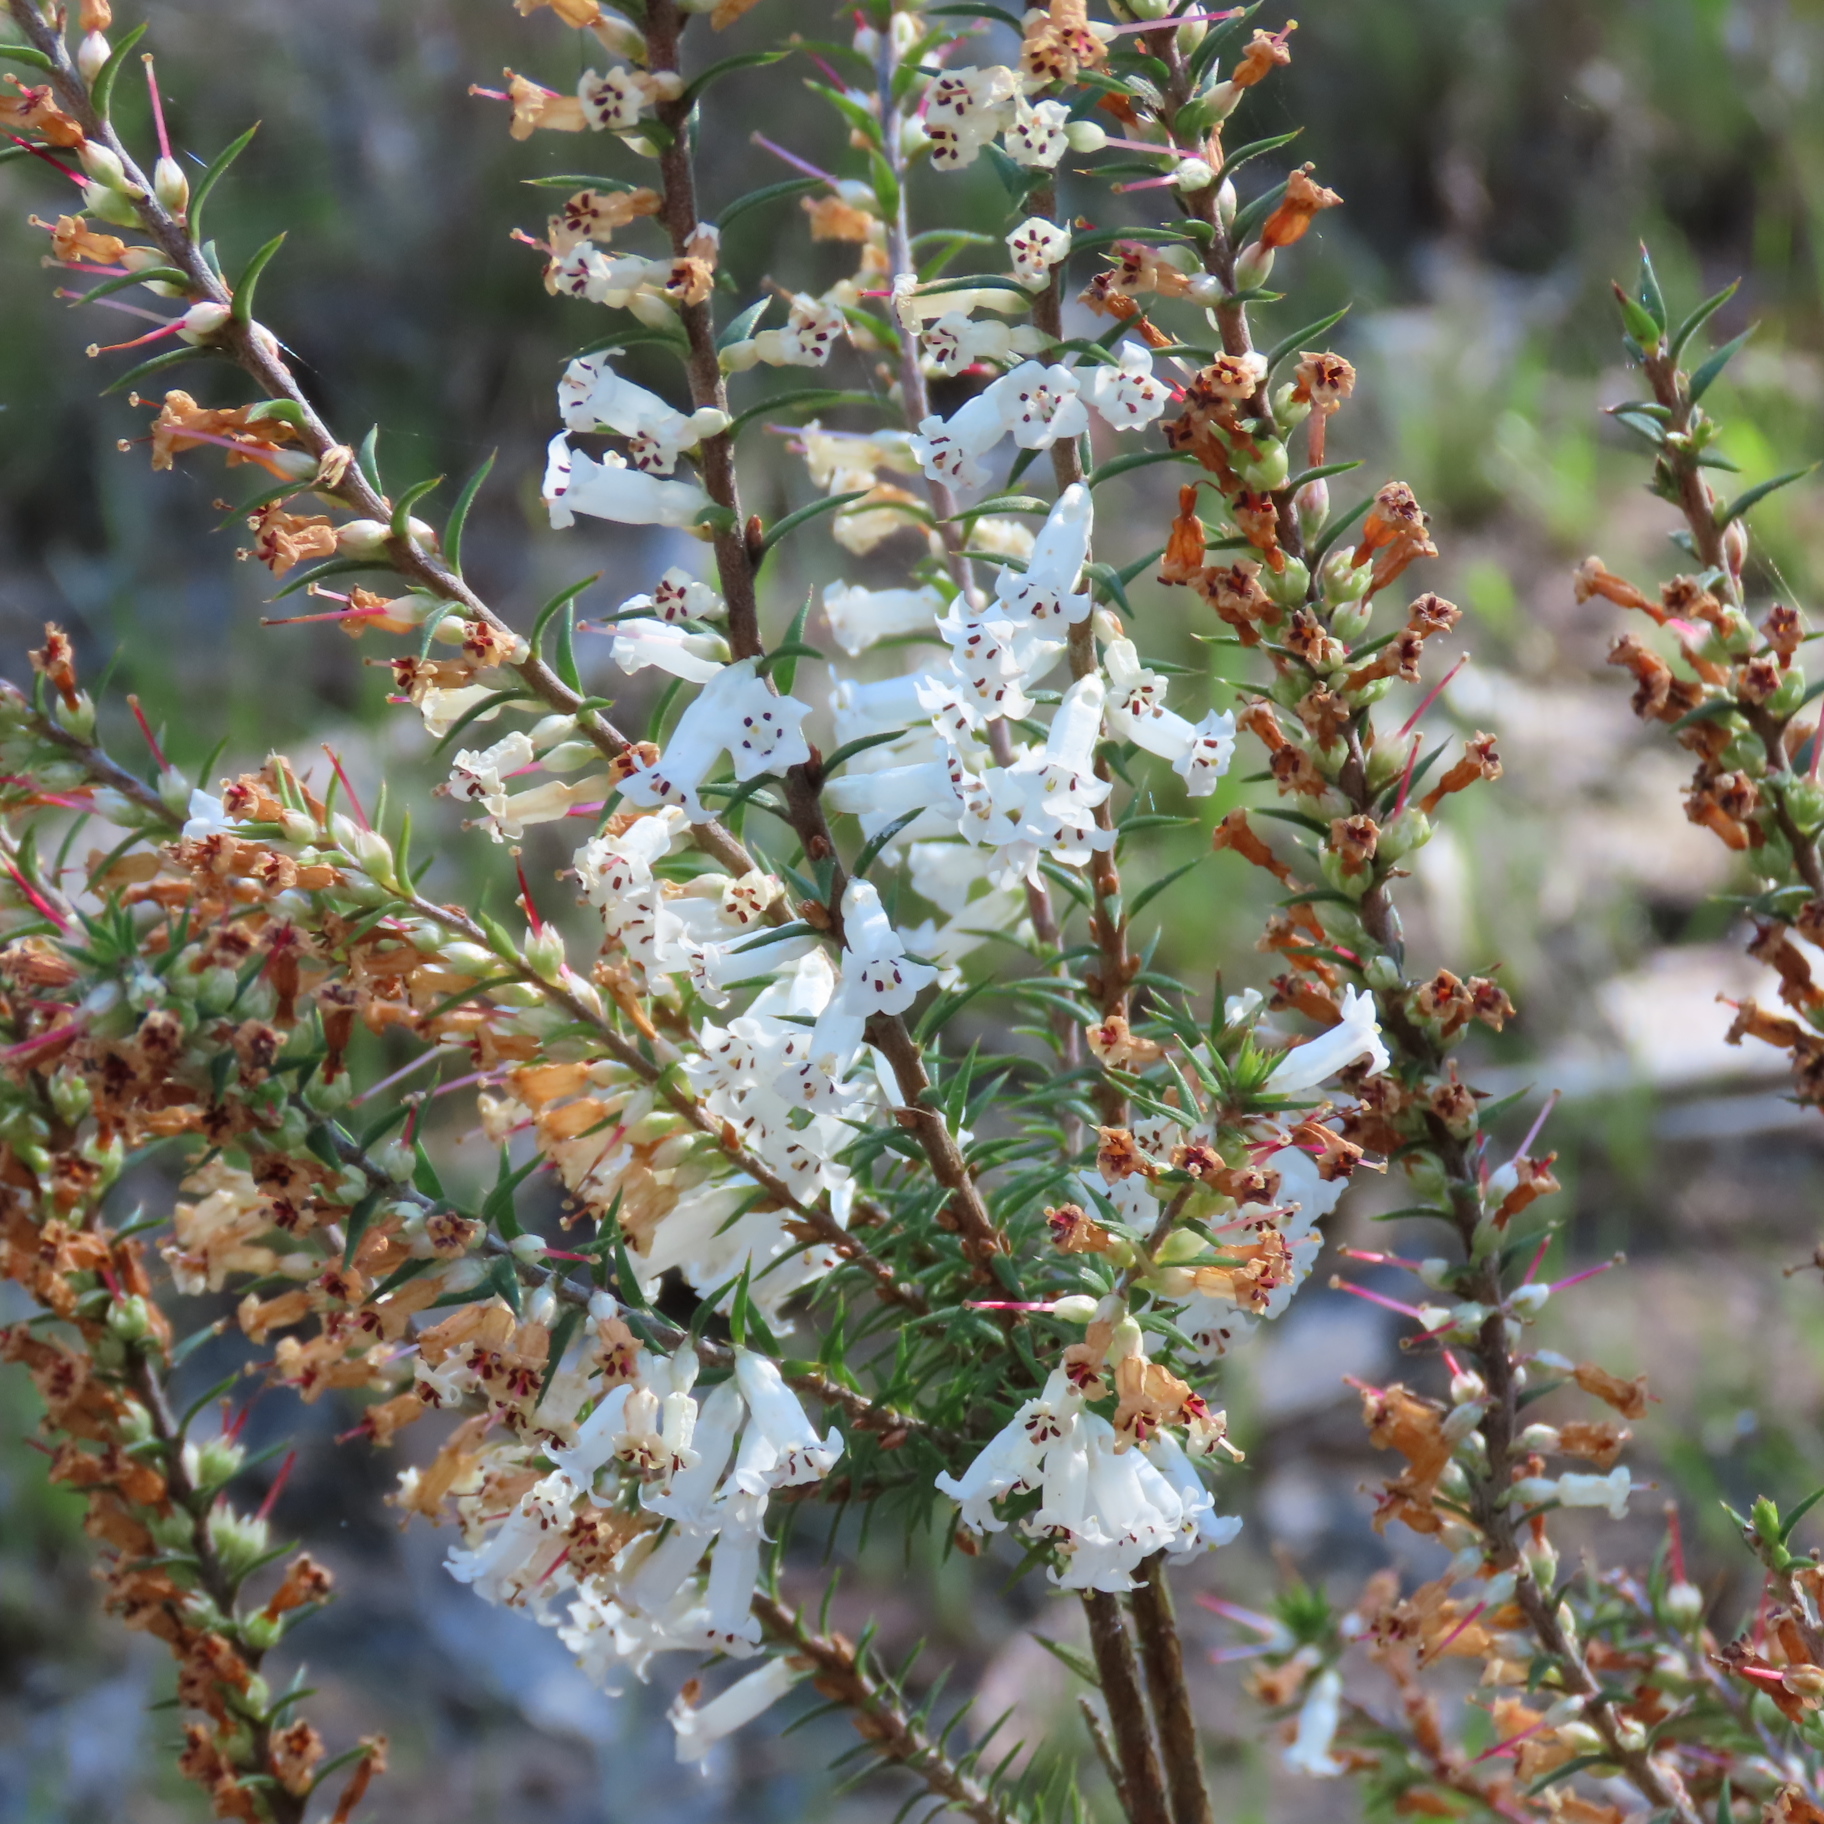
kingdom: Plantae
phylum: Tracheophyta
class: Magnoliopsida
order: Ericales
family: Ericaceae
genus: Epacris
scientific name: Epacris impressa
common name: Common-heath
